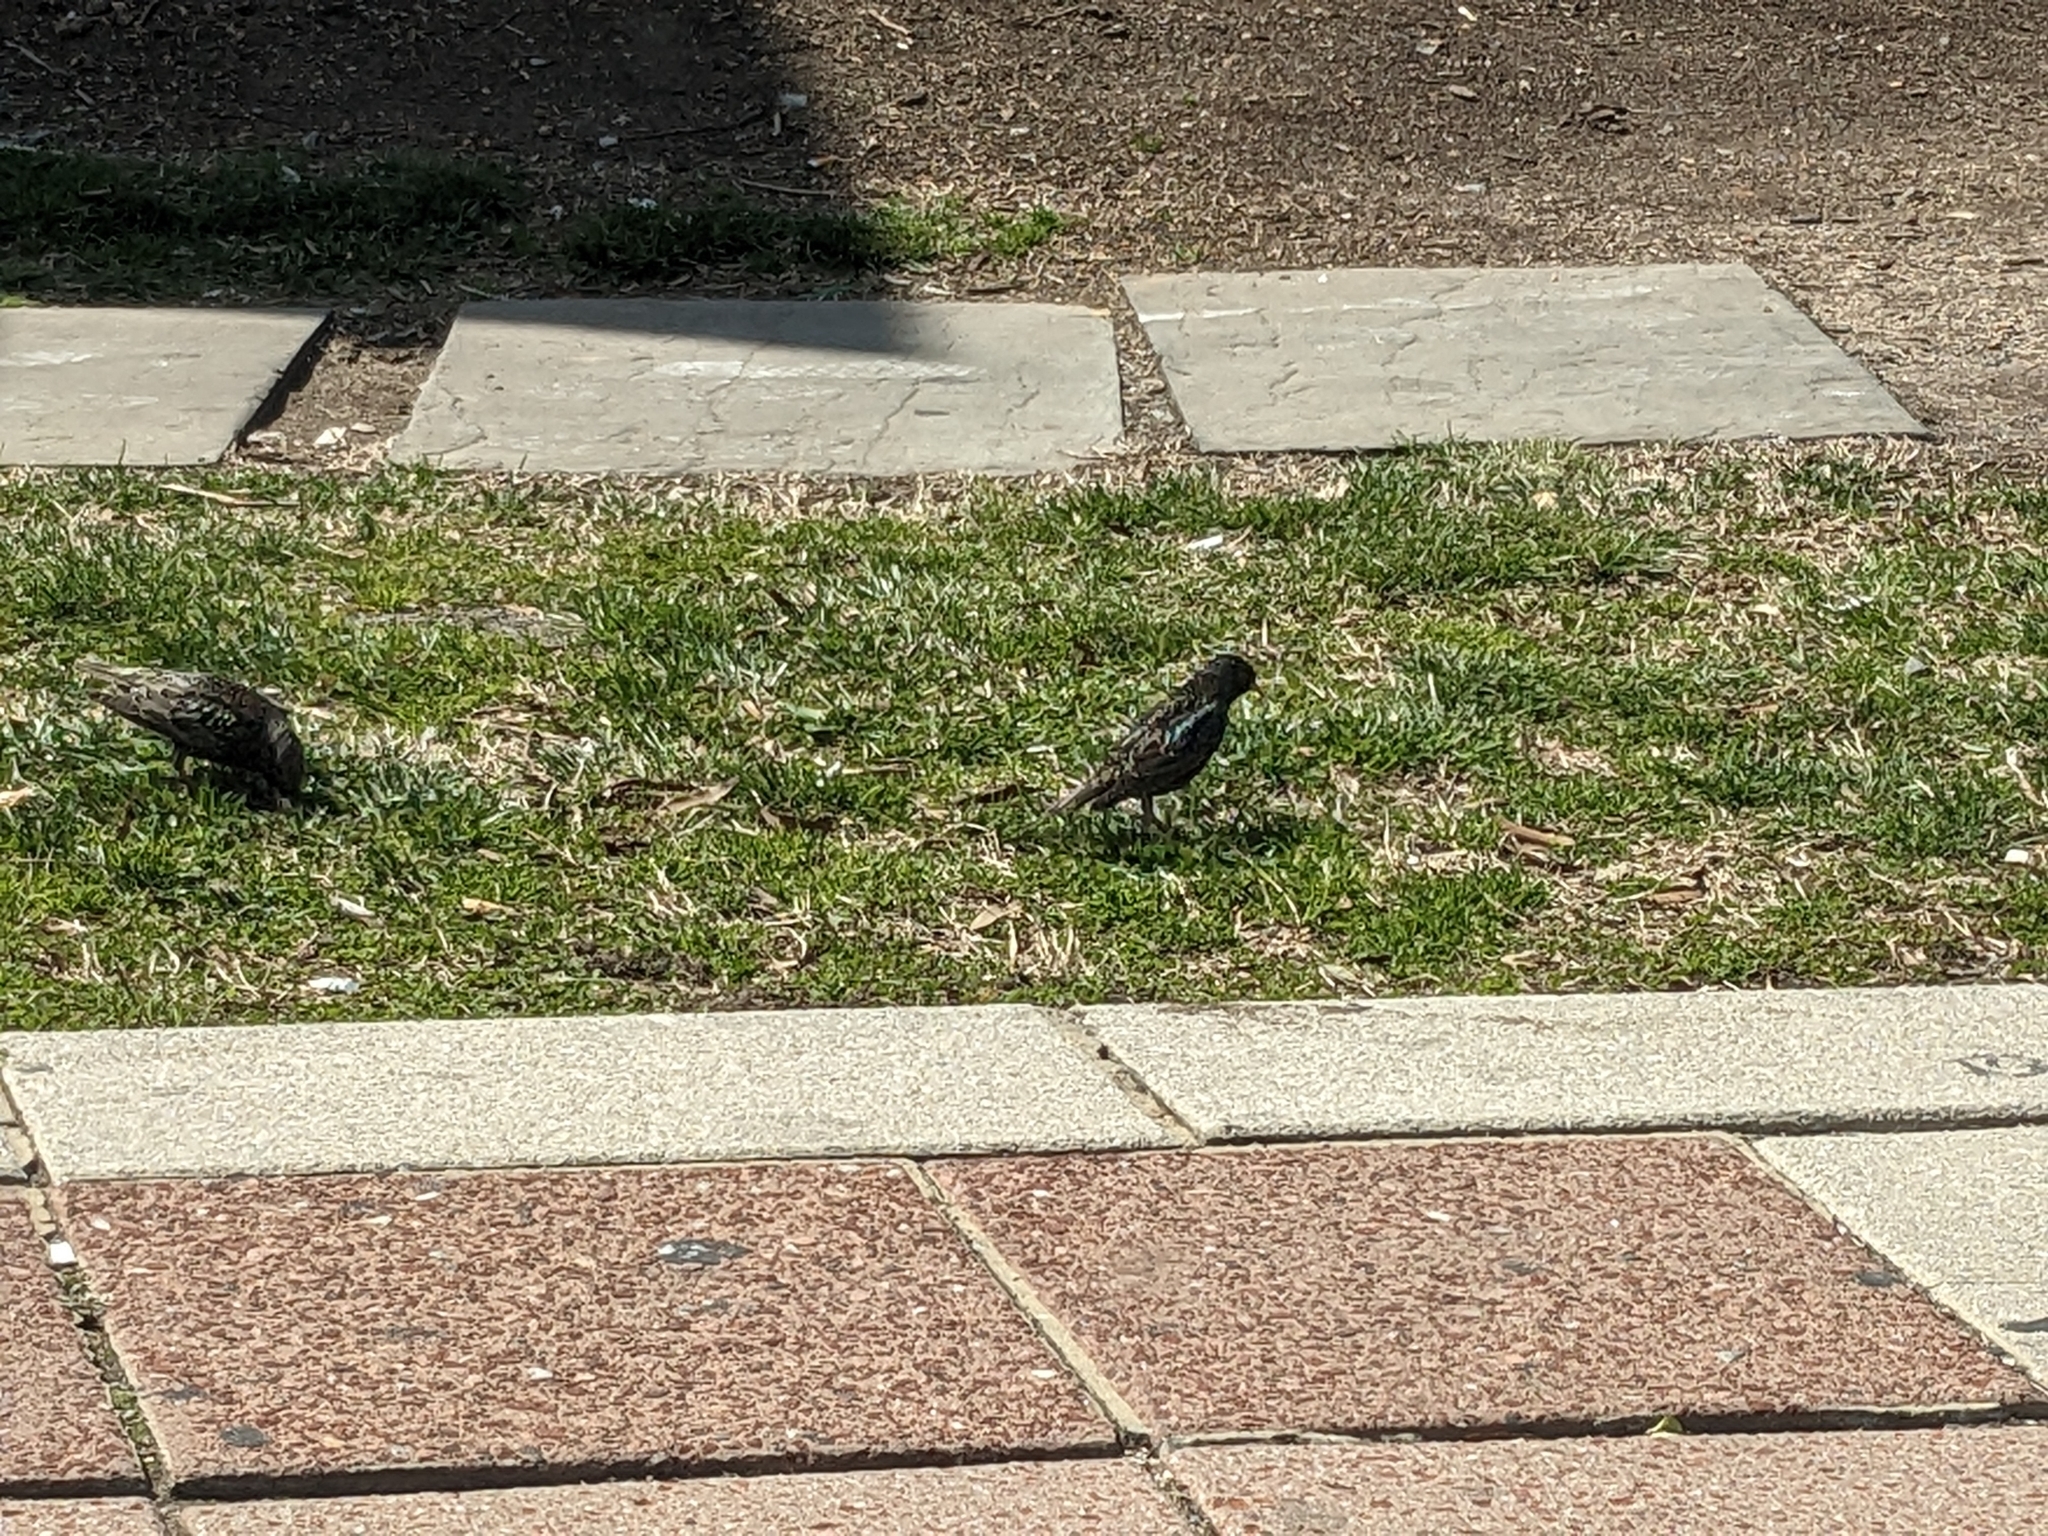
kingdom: Animalia
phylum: Chordata
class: Aves
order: Passeriformes
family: Sturnidae
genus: Sturnus
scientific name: Sturnus vulgaris
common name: Common starling
